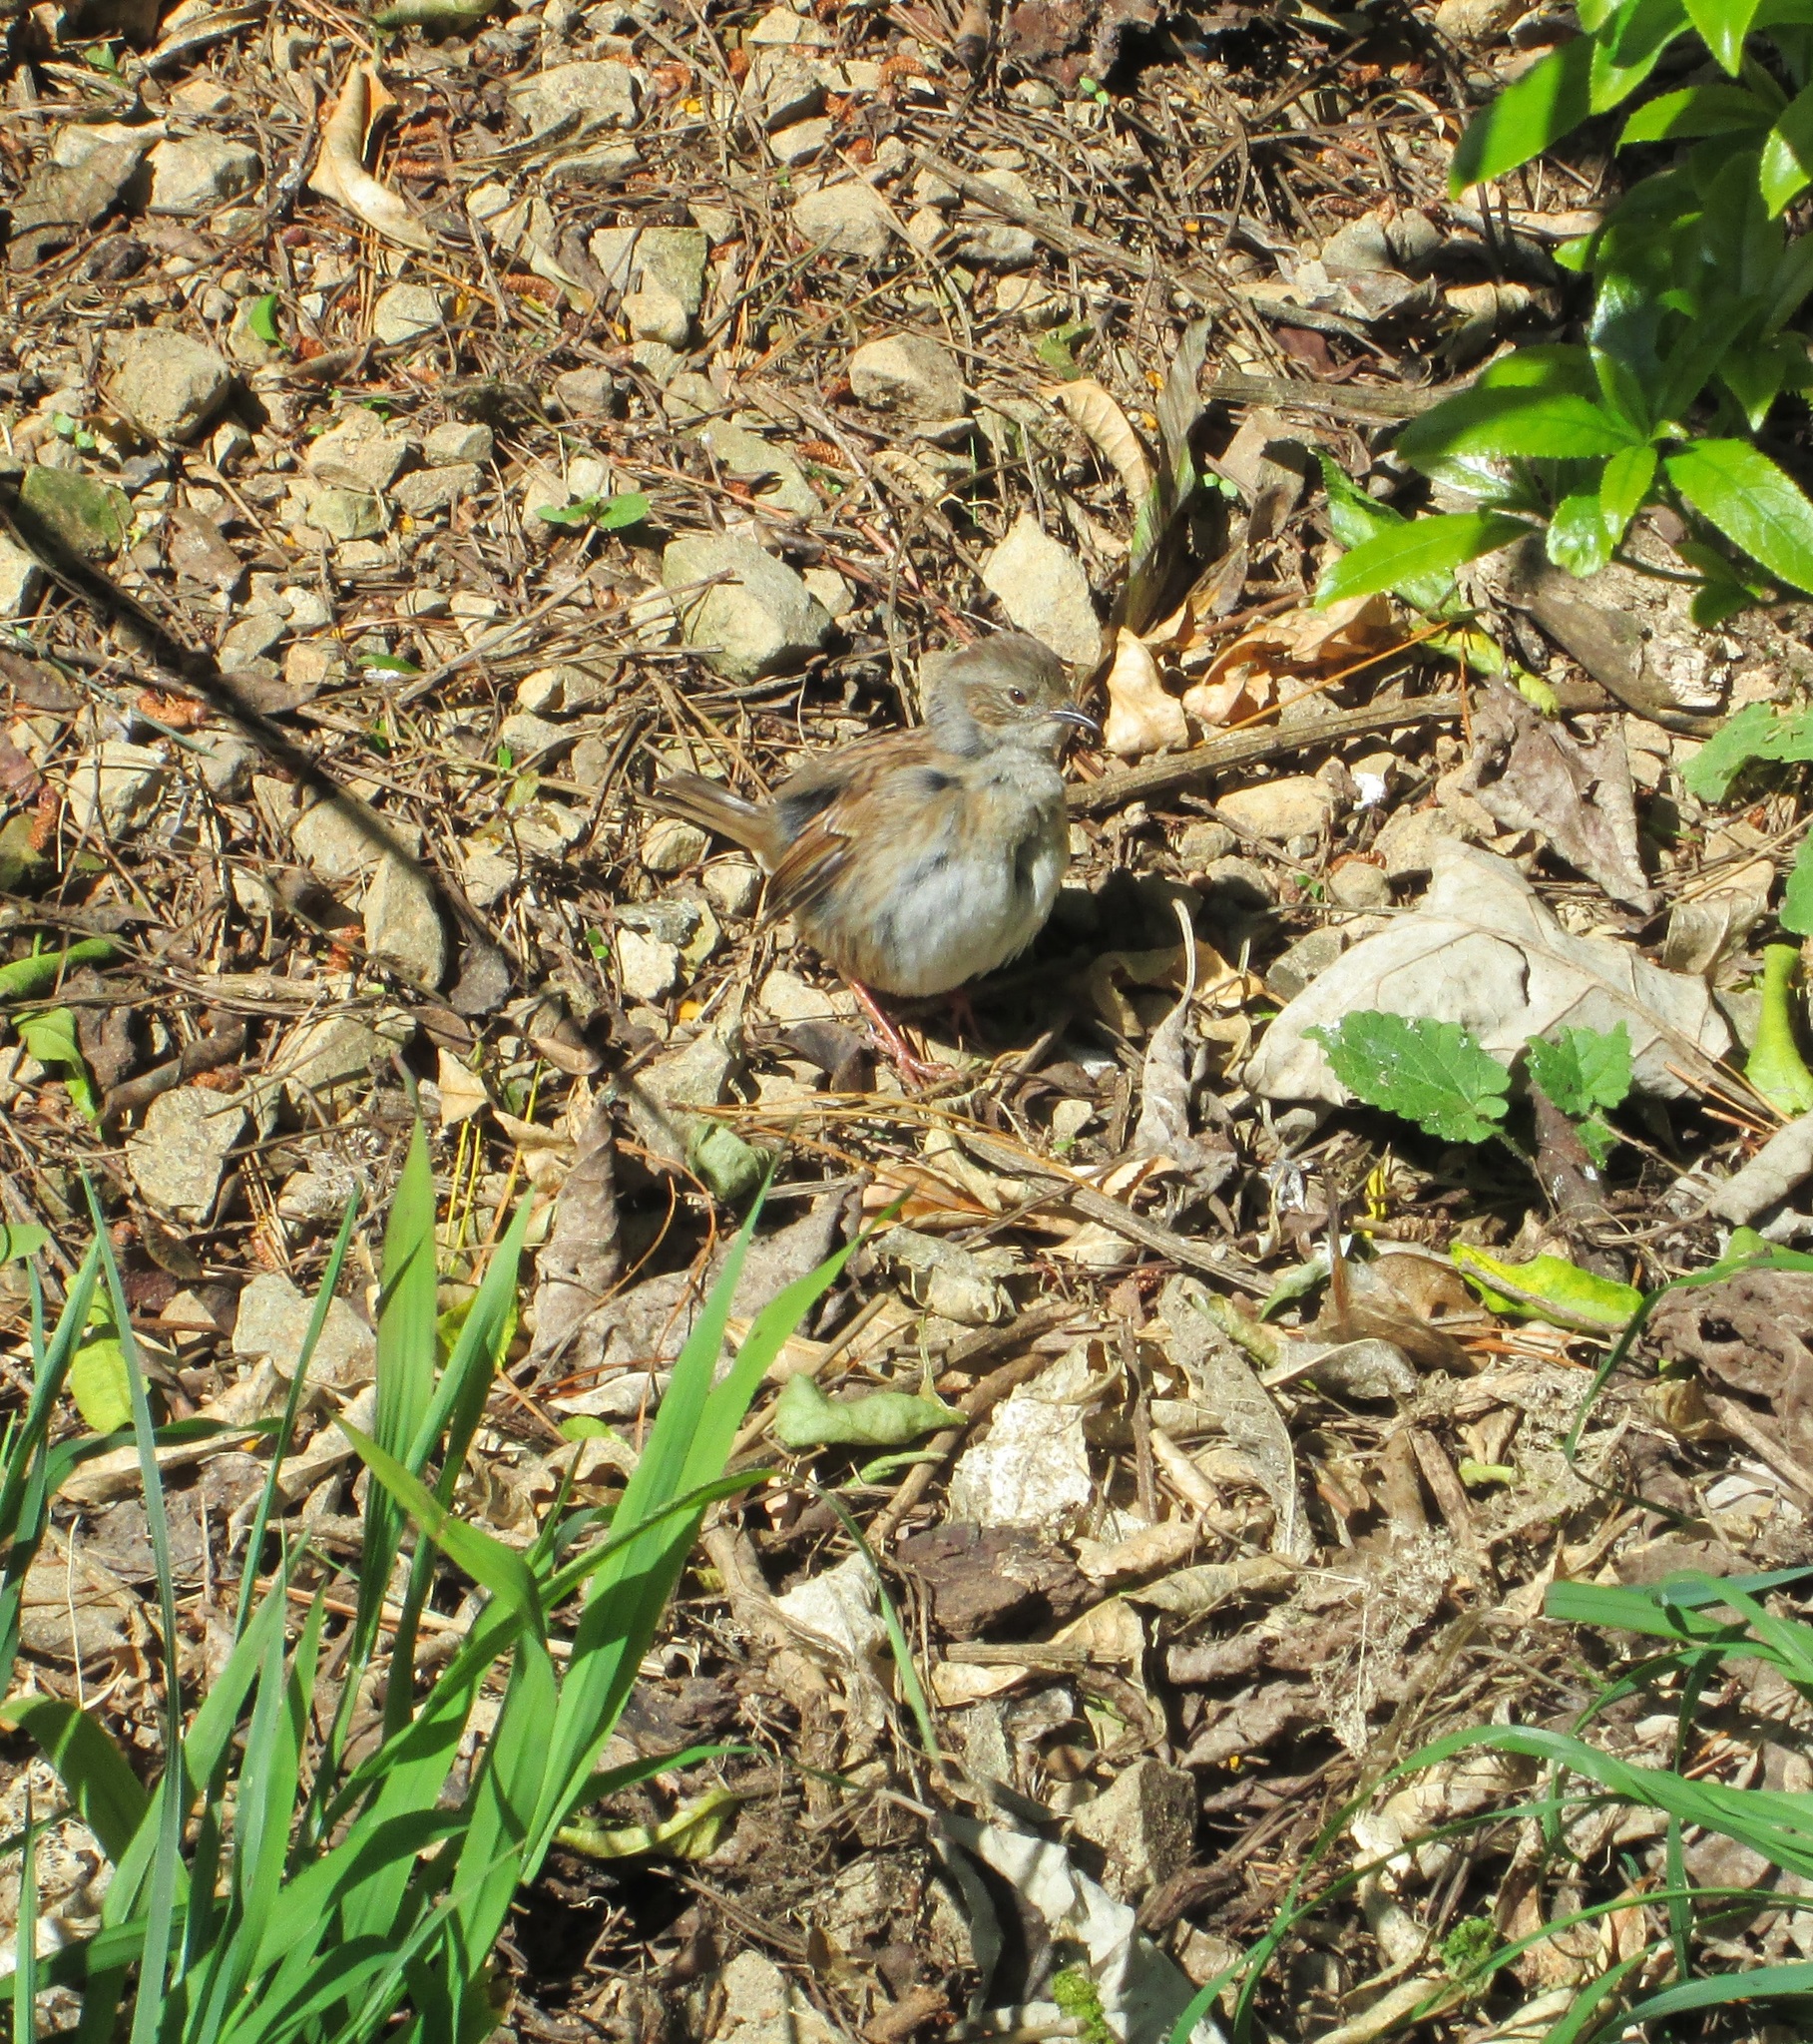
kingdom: Animalia
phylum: Chordata
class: Aves
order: Passeriformes
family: Prunellidae
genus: Prunella
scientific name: Prunella modularis
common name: Dunnock
